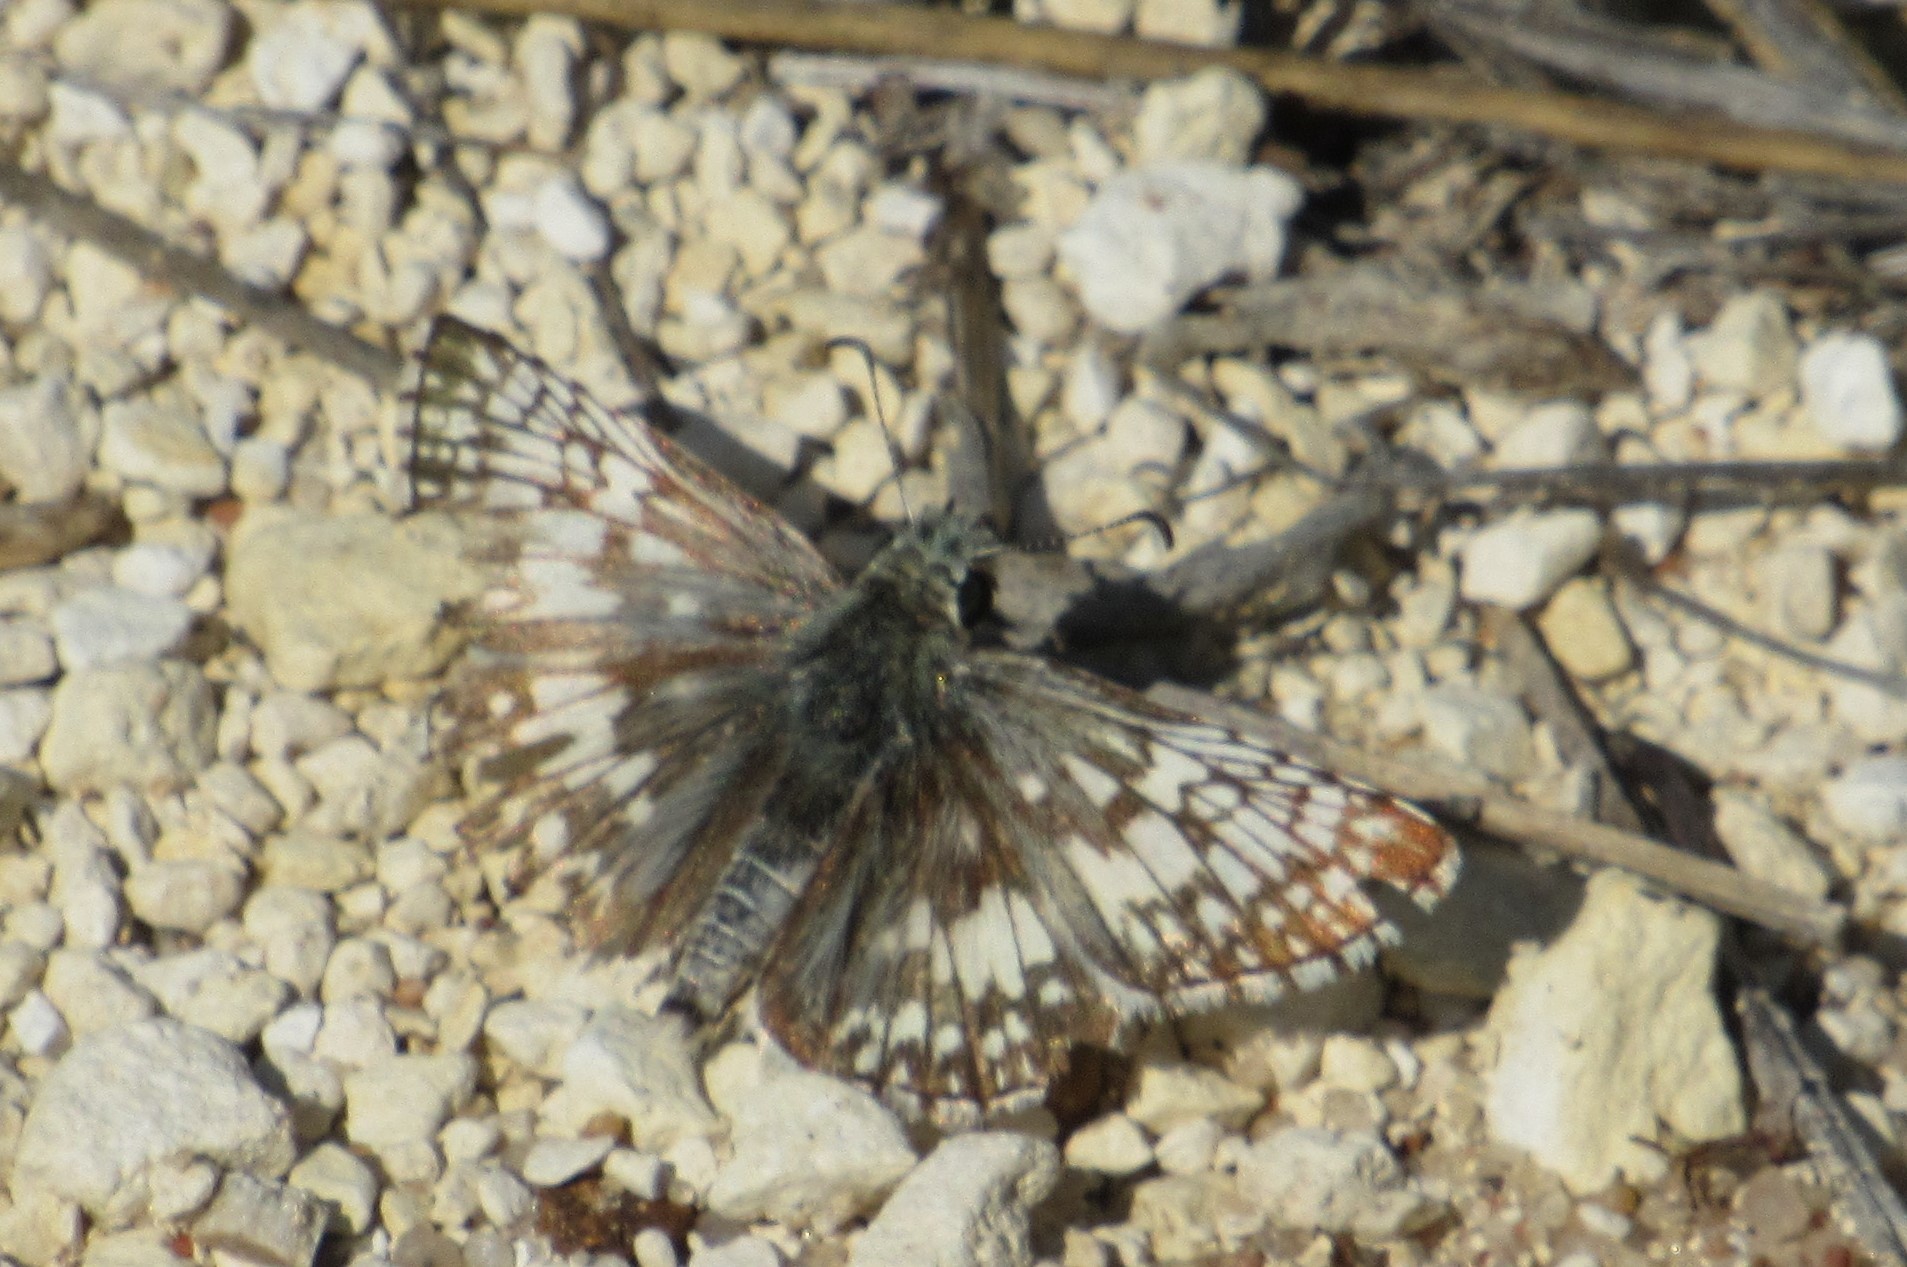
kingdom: Animalia
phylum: Arthropoda
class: Insecta
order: Lepidoptera
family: Hesperiidae
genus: Burnsius
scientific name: Burnsius communis
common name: Common checkered-skipper
